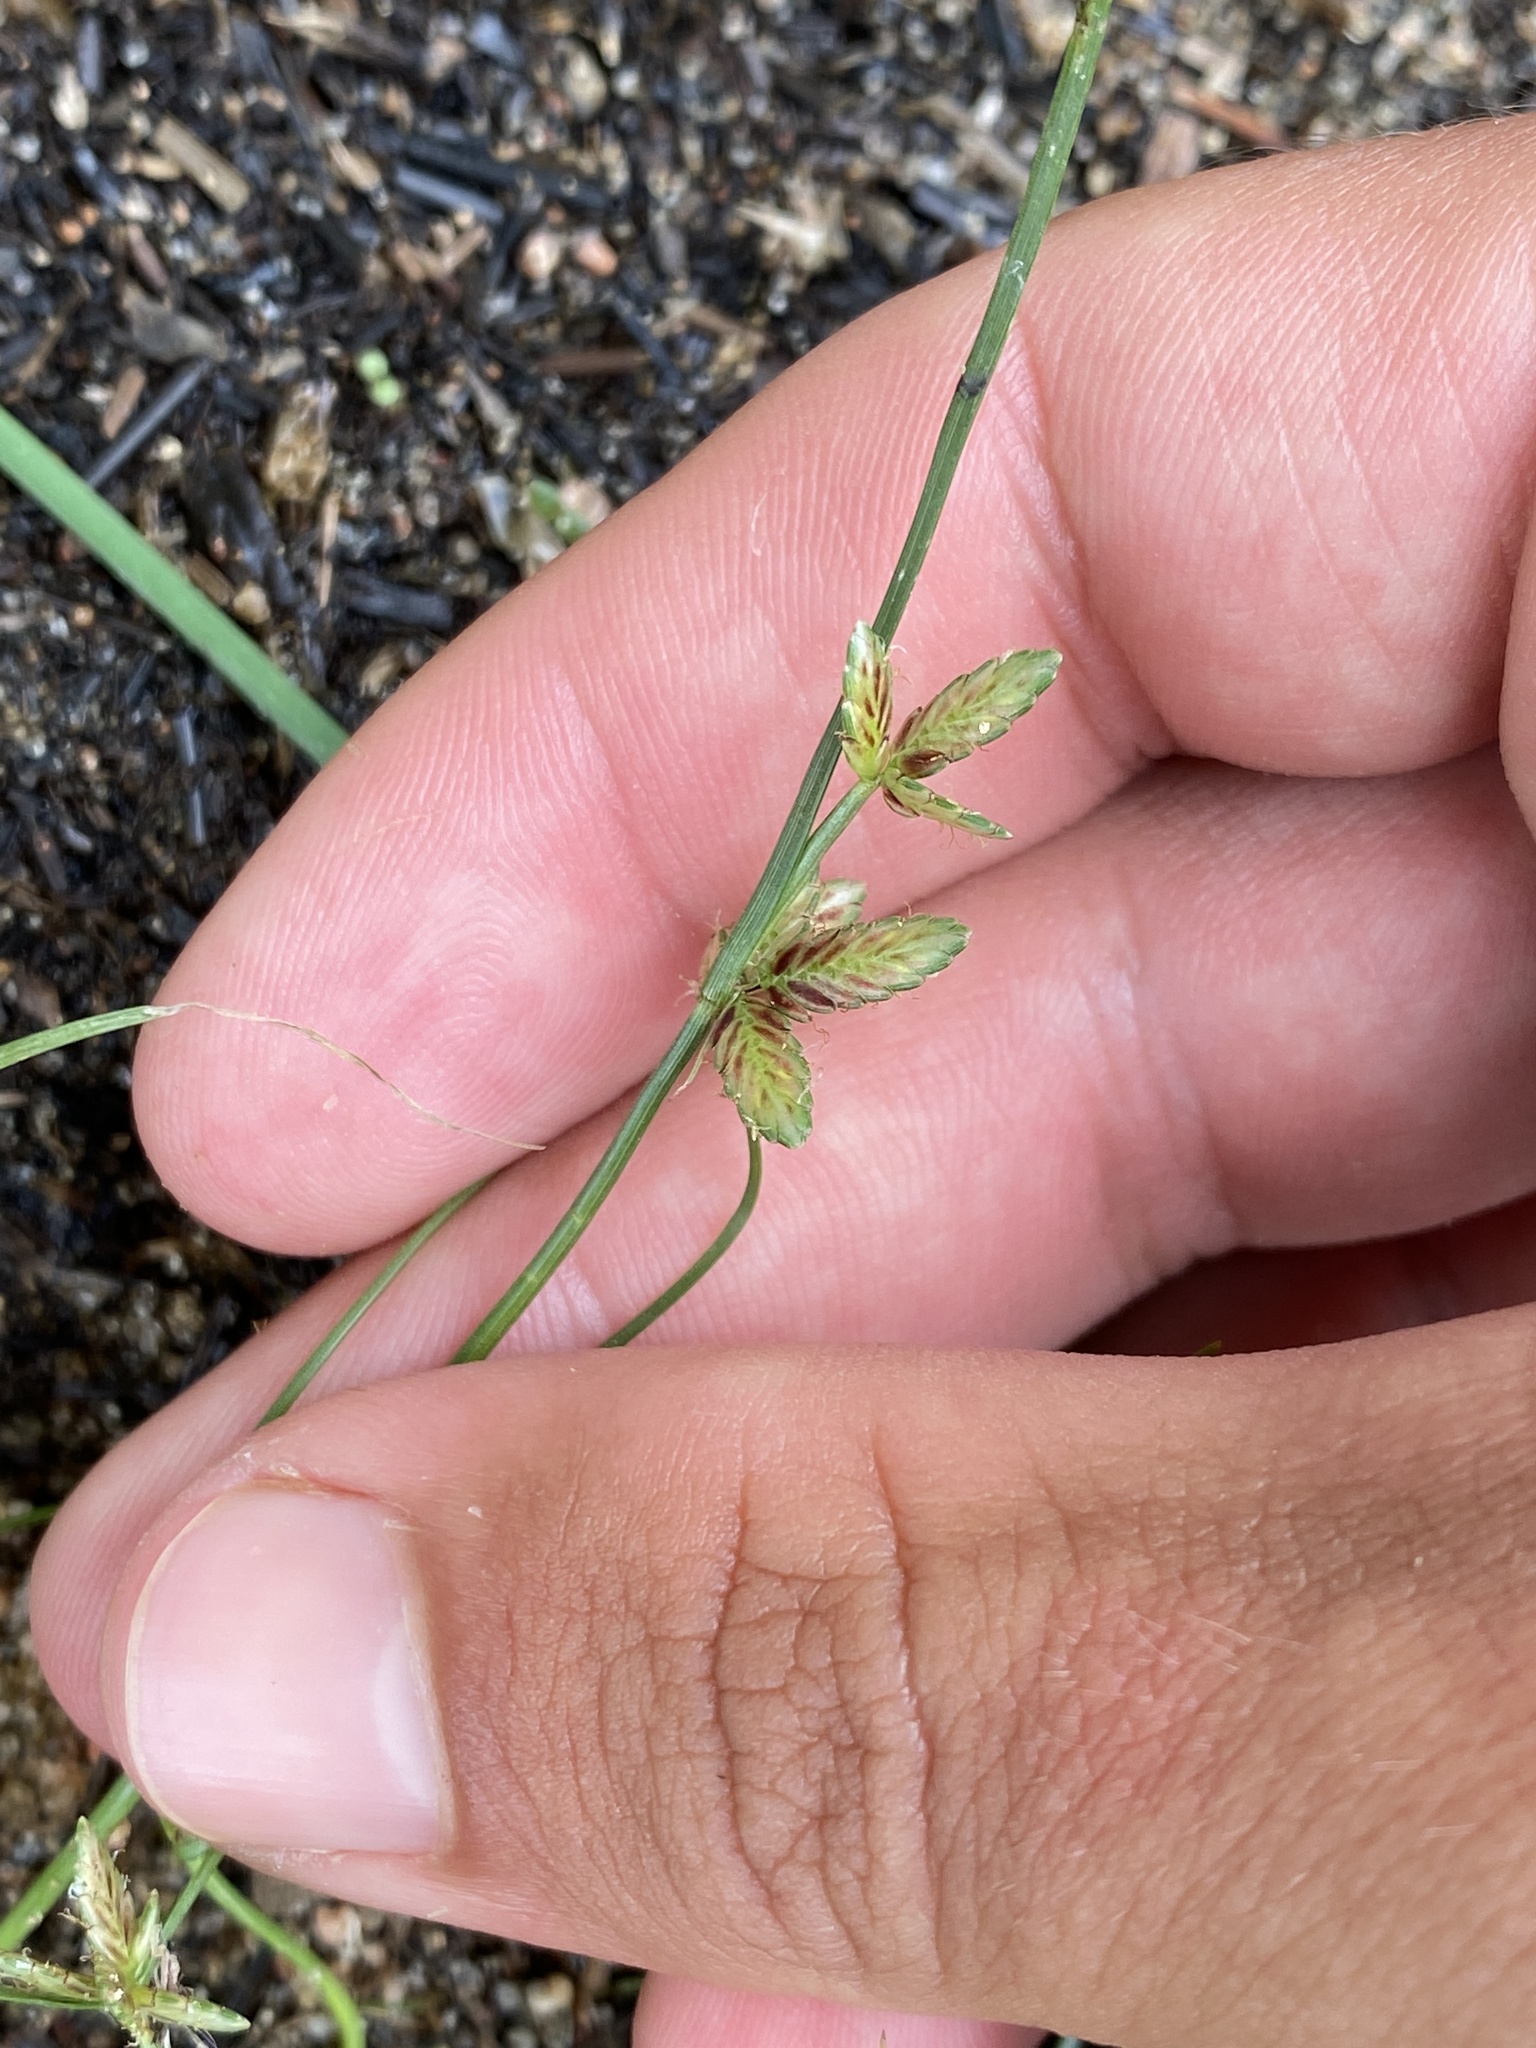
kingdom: Plantae
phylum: Tracheophyta
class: Liliopsida
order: Poales
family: Cyperaceae
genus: Cyperus
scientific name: Cyperus bipartitus
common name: Brook flatsedge
